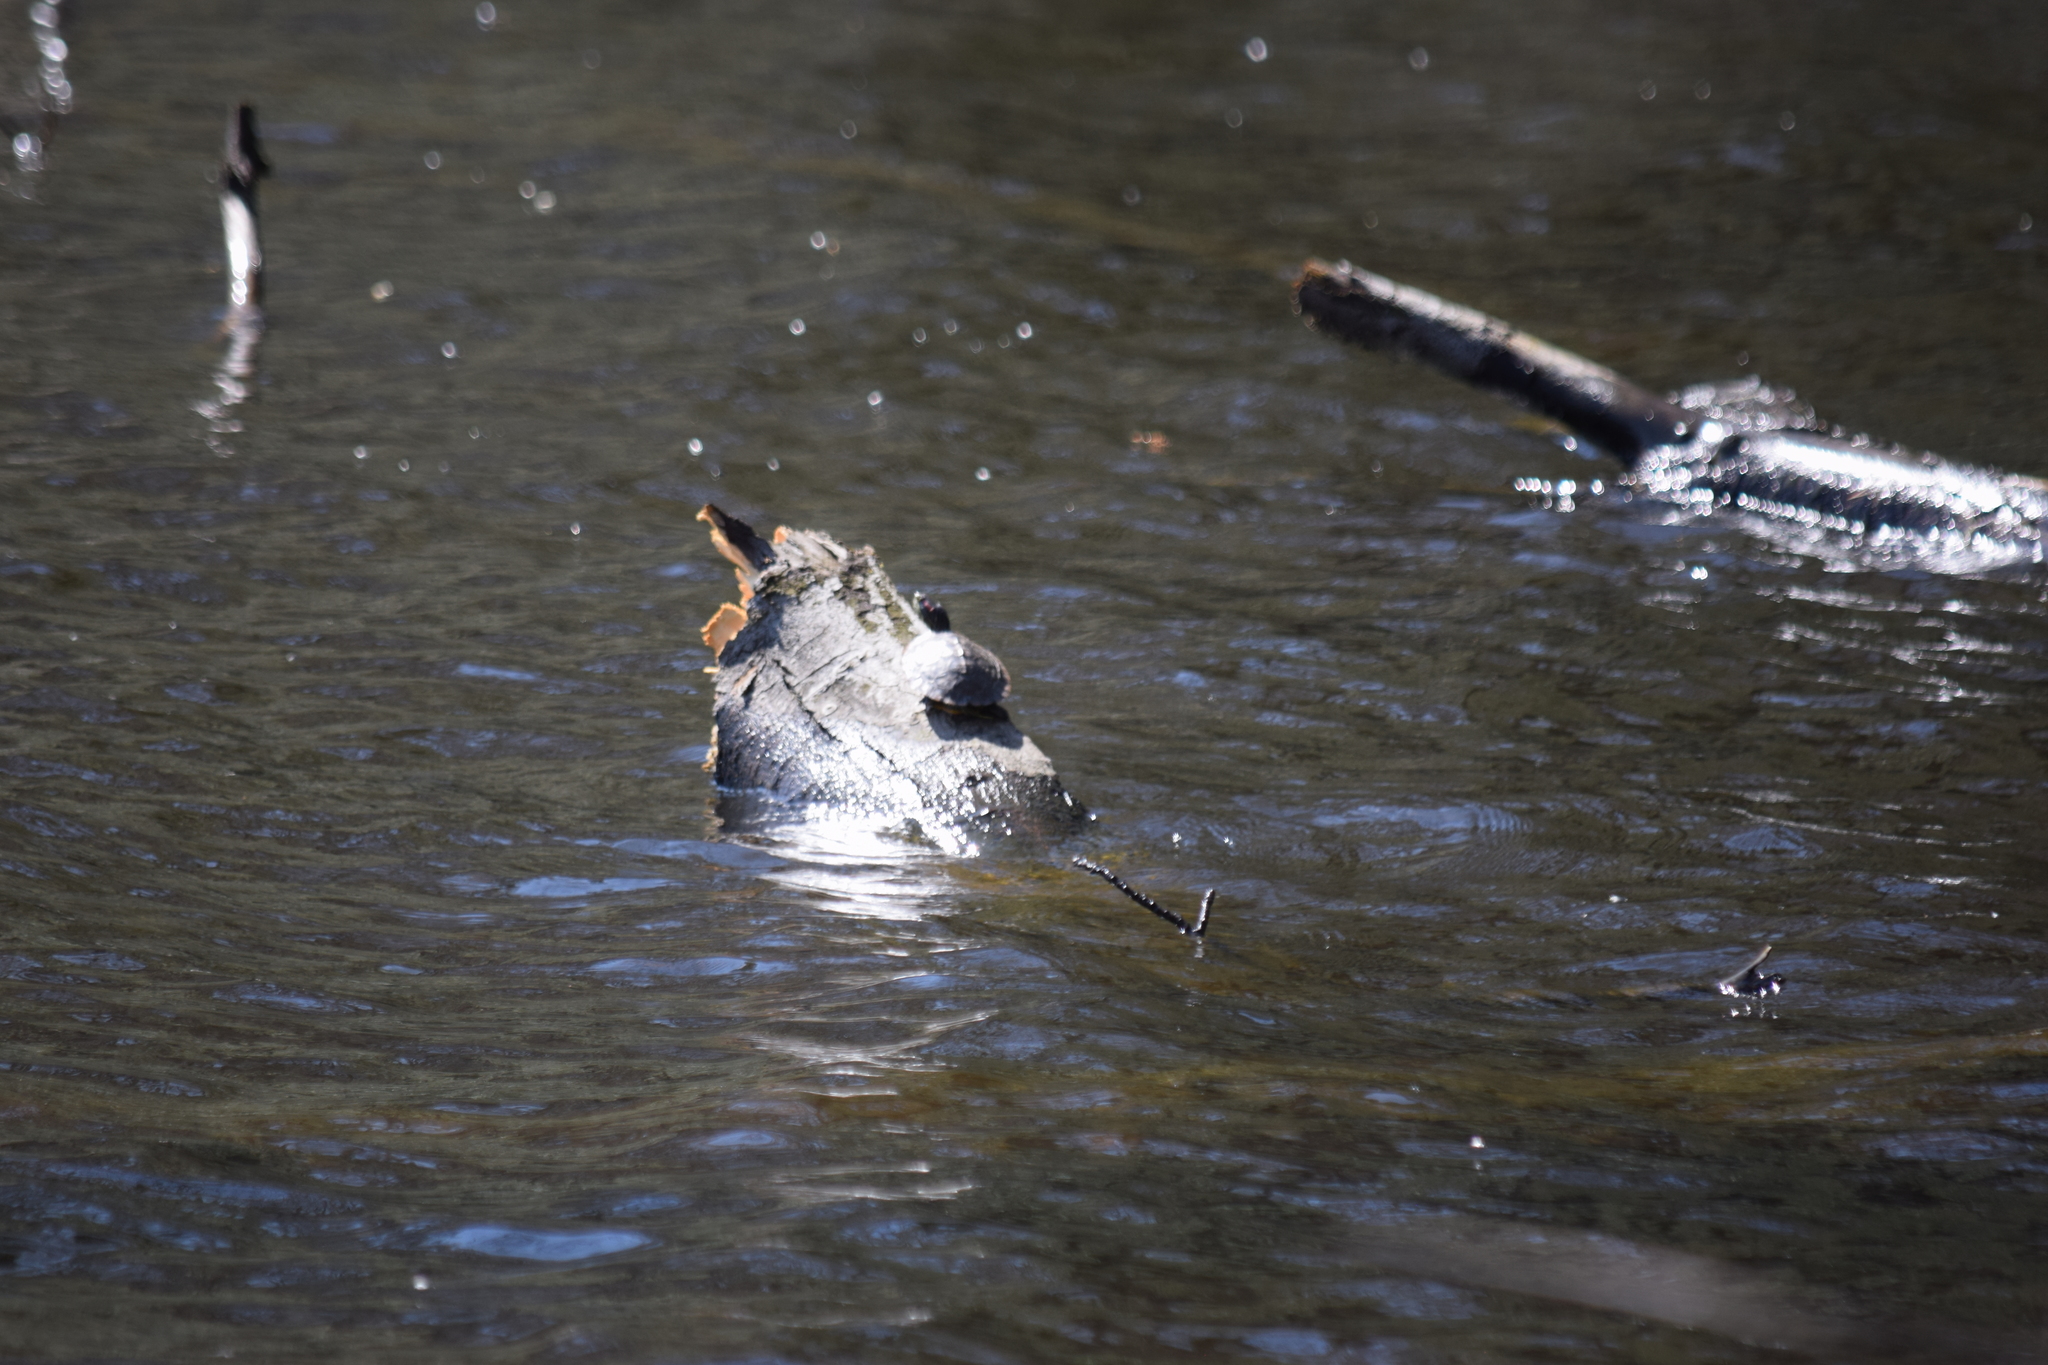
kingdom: Animalia
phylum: Chordata
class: Testudines
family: Emydidae
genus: Trachemys
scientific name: Trachemys scripta
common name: Slider
